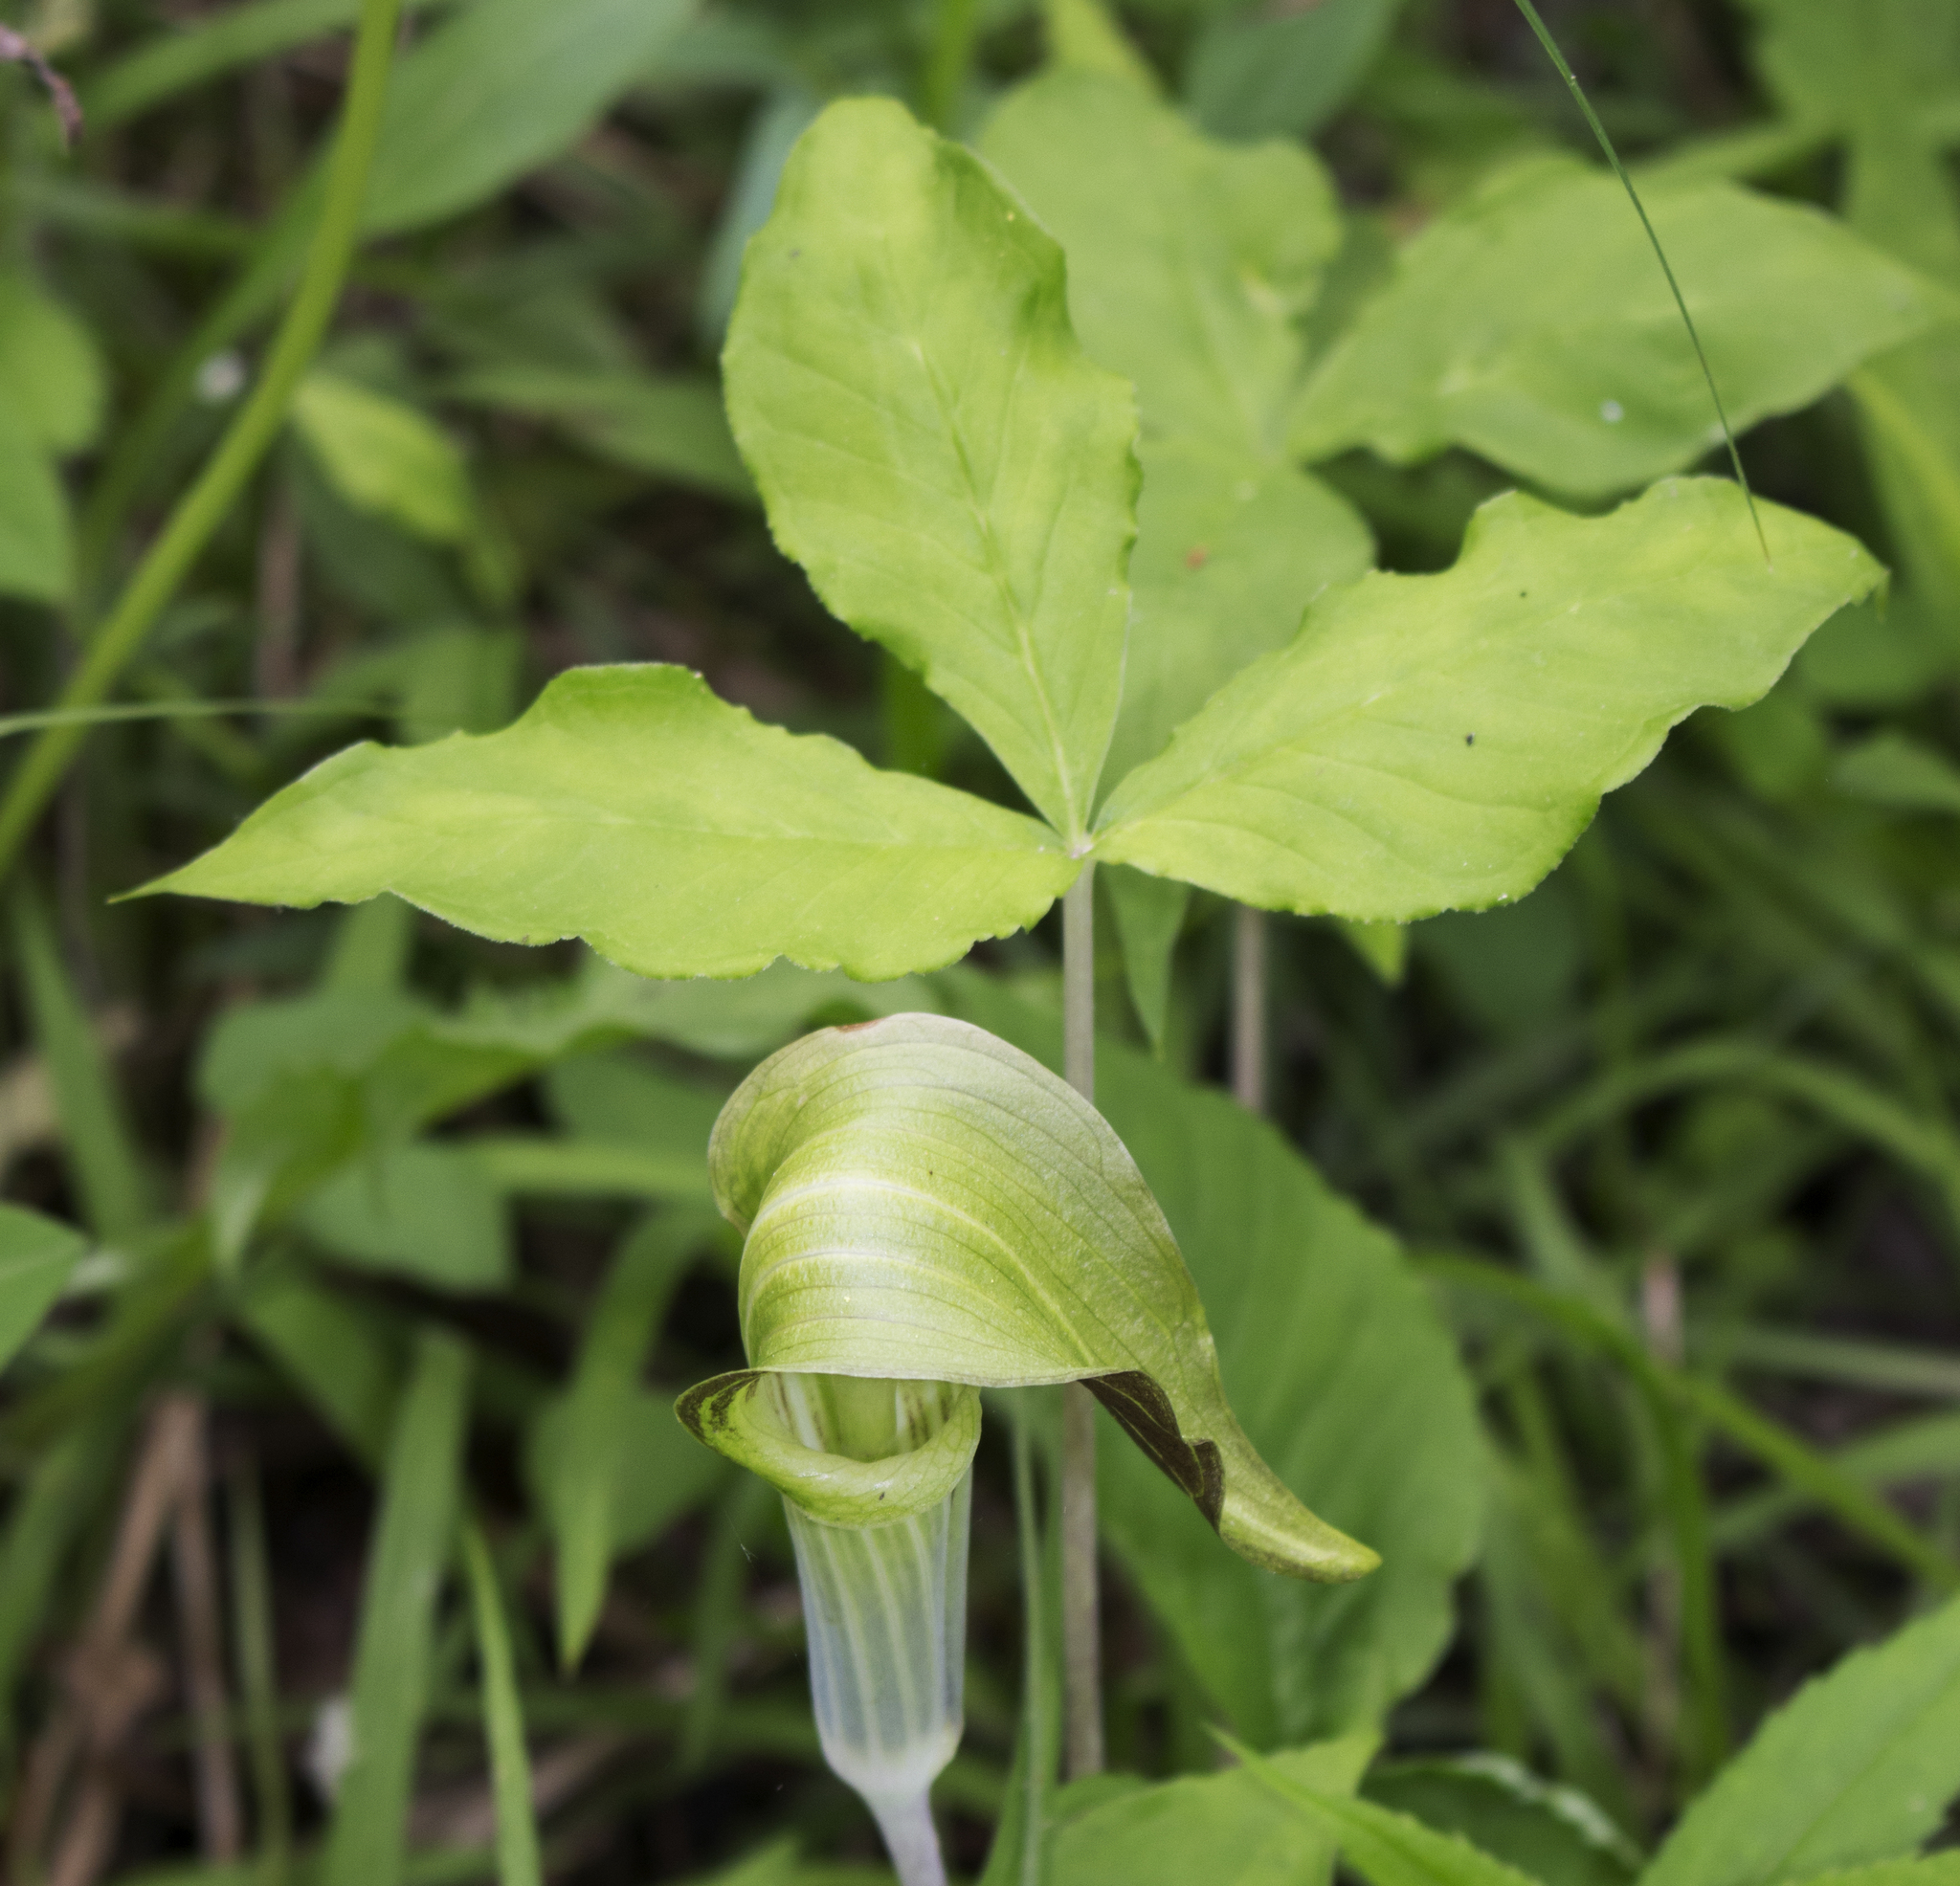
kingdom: Plantae
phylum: Tracheophyta
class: Liliopsida
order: Alismatales
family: Araceae
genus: Arisaema
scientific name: Arisaema triphyllum
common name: Jack-in-the-pulpit
